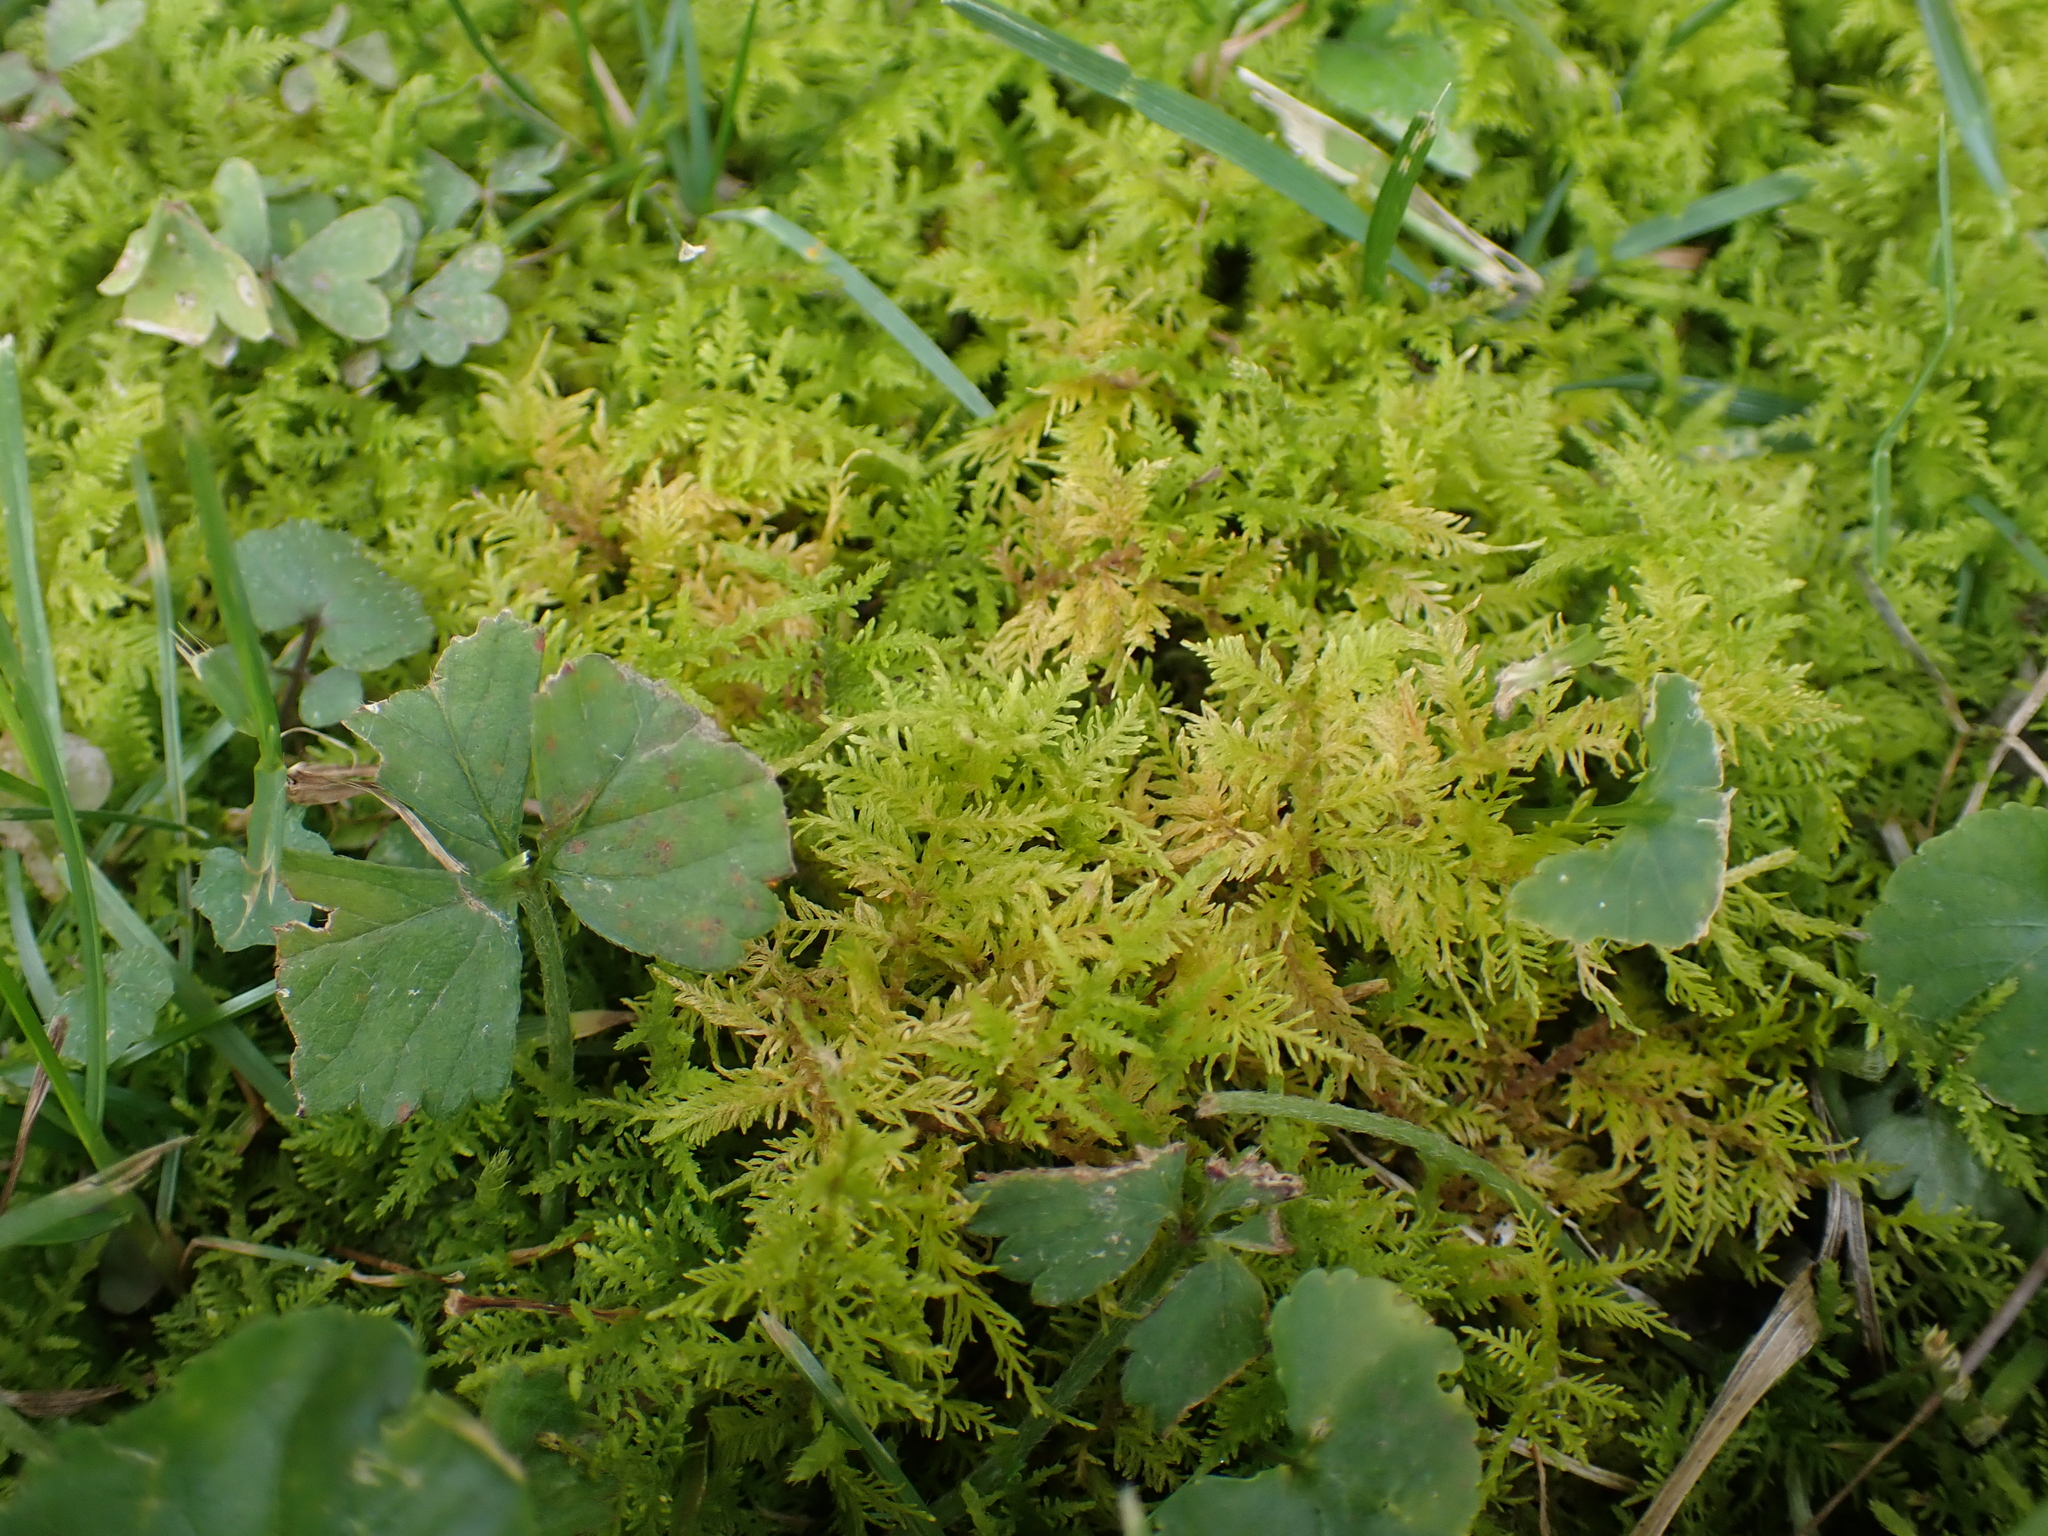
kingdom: Plantae
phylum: Bryophyta
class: Bryopsida
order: Hypnales
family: Thuidiaceae
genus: Thuidium
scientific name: Thuidium delicatulum
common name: Delicate fern moss
